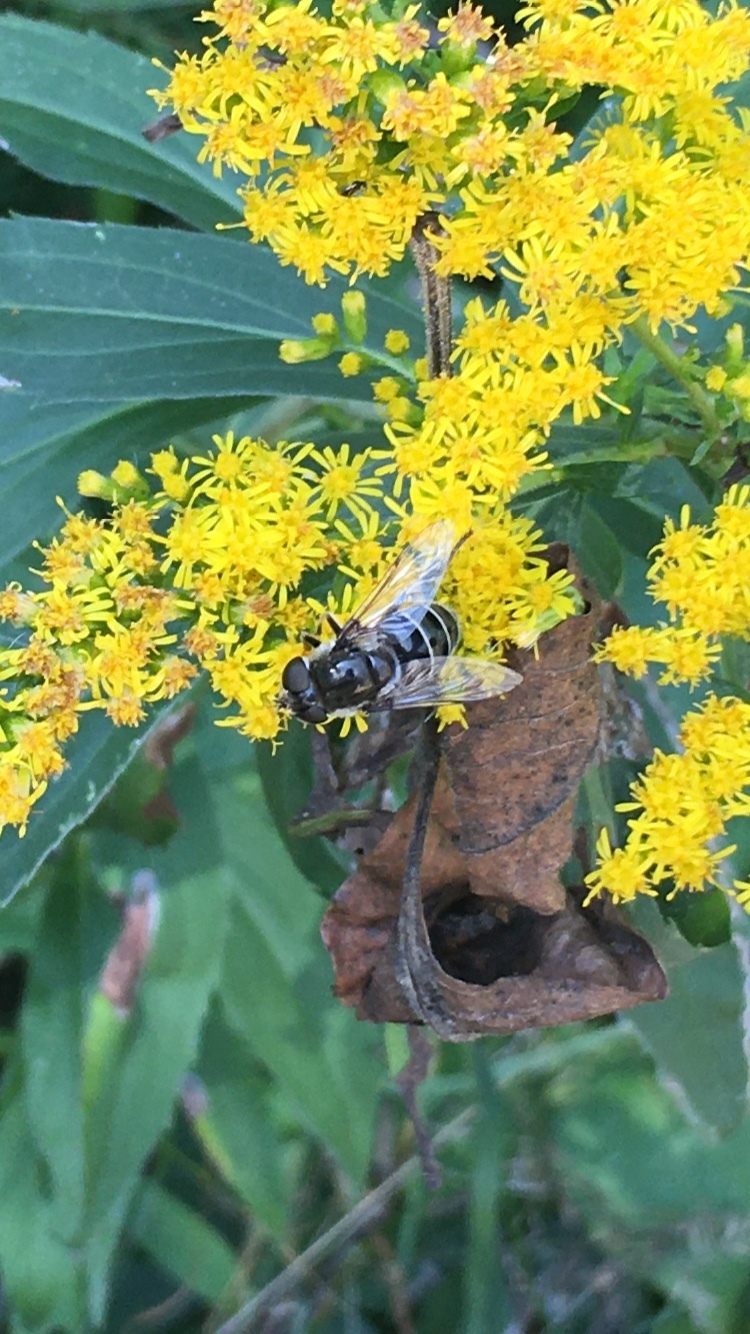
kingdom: Animalia
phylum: Arthropoda
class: Insecta
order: Diptera
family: Syrphidae
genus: Eristalis
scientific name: Eristalis dimidiata
